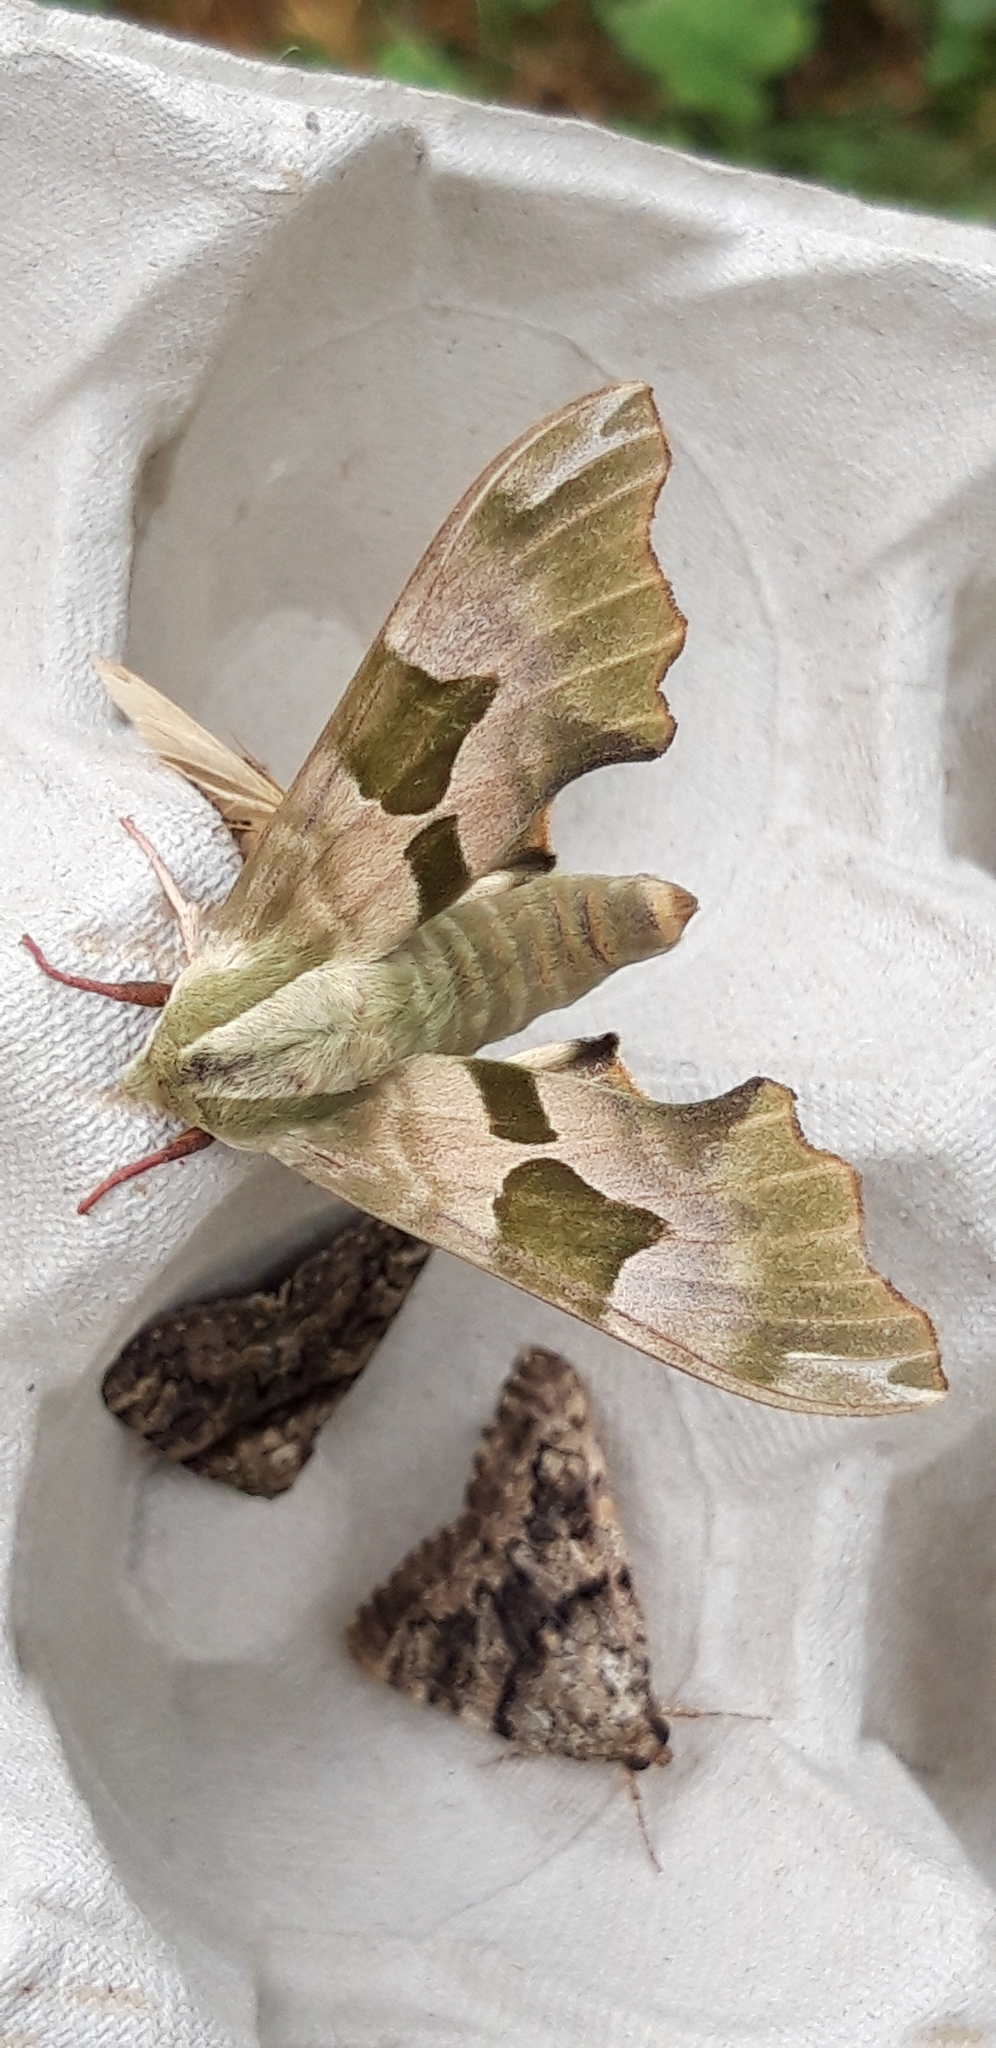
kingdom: Animalia
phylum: Arthropoda
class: Insecta
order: Lepidoptera
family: Sphingidae
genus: Mimas
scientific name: Mimas tiliae
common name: Lime hawk-moth
